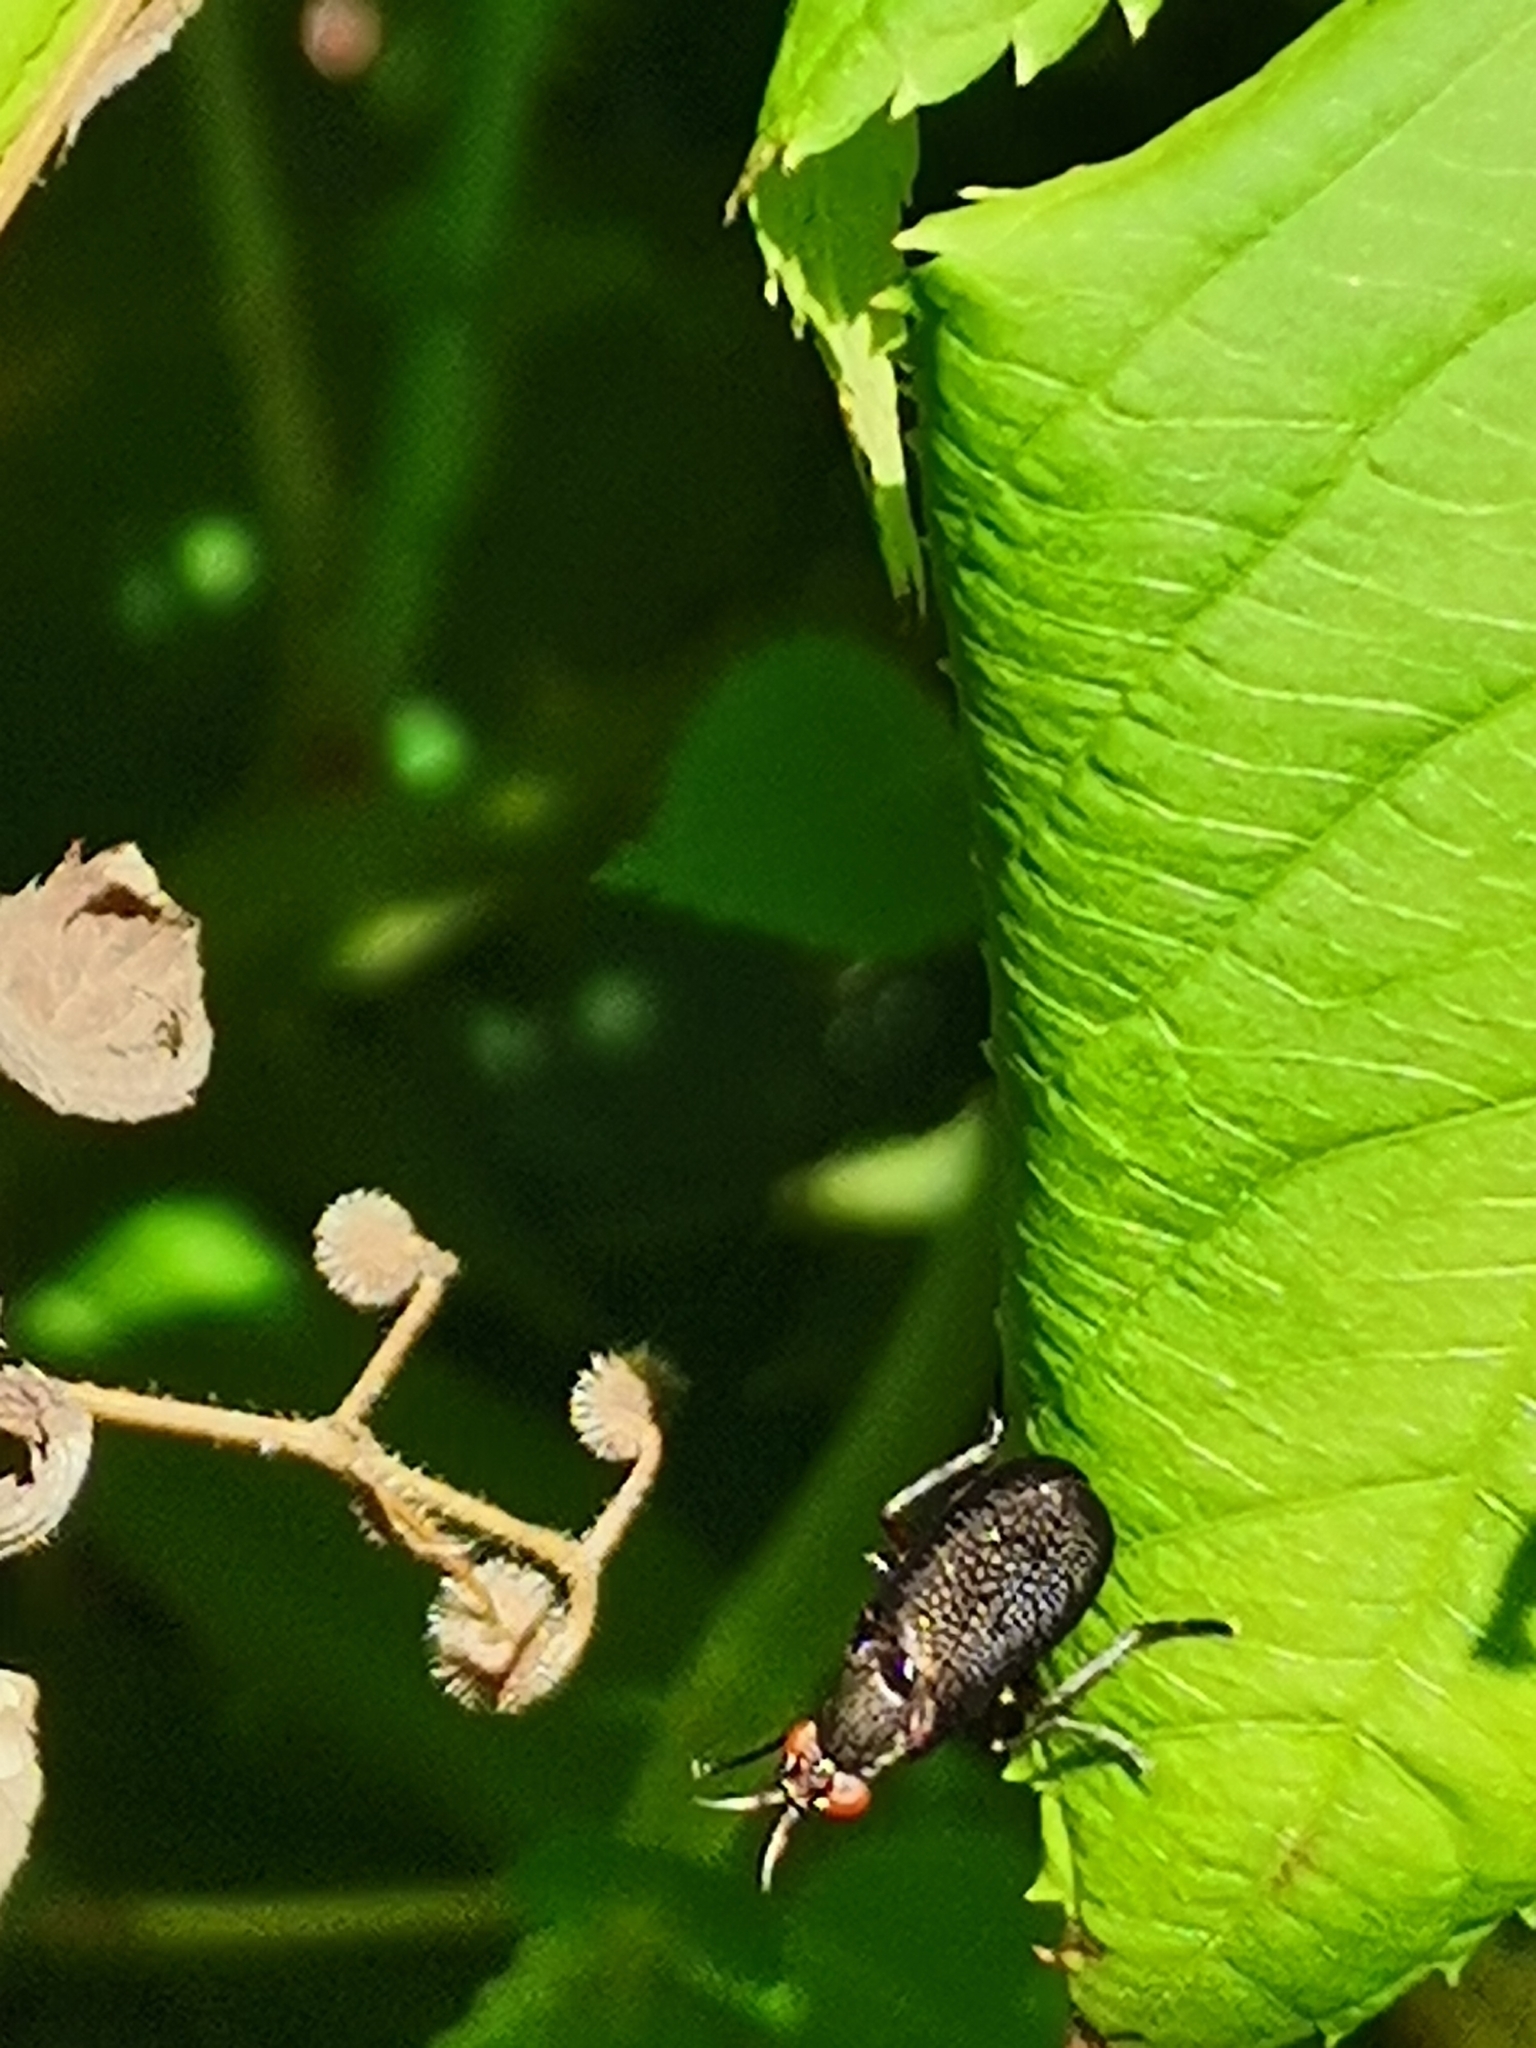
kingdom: Animalia
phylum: Arthropoda
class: Insecta
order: Diptera
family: Sciomyzidae
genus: Coremacera
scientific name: Coremacera marginata
